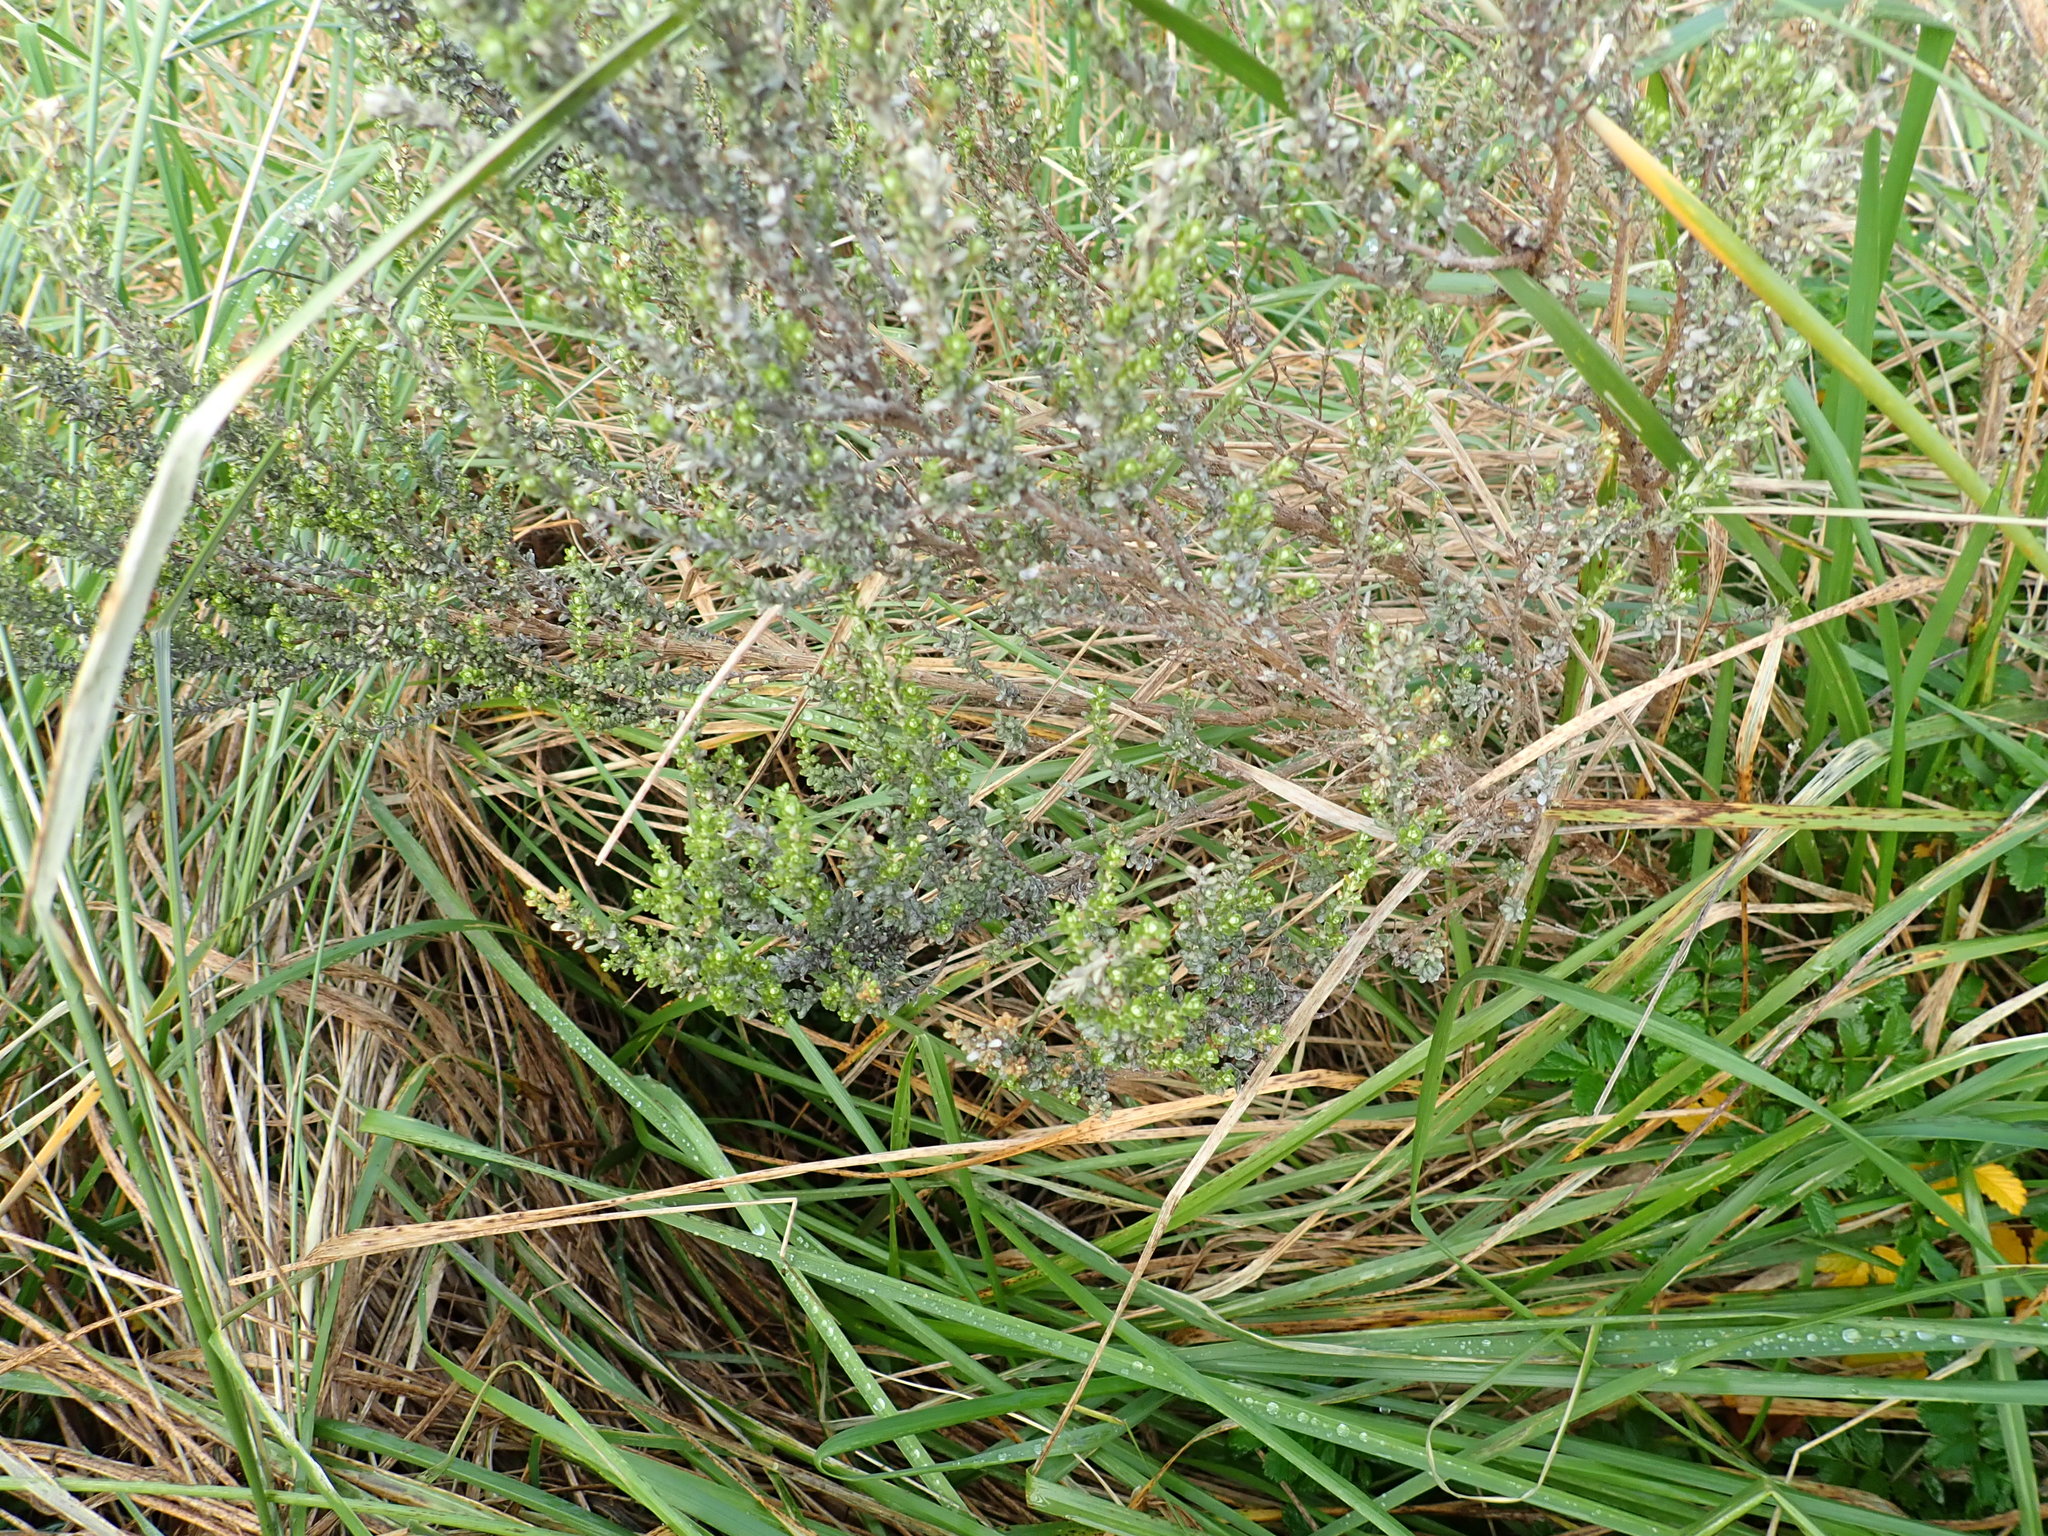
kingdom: Plantae
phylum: Tracheophyta
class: Magnoliopsida
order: Asterales
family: Asteraceae
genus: Ozothamnus
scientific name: Ozothamnus leptophyllus
